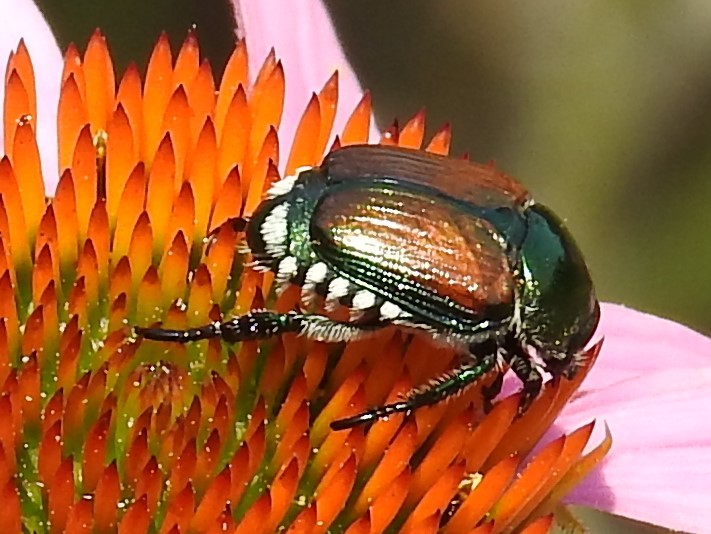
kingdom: Animalia
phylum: Arthropoda
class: Insecta
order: Coleoptera
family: Scarabaeidae
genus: Popillia
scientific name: Popillia japonica
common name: Japanese beetle
